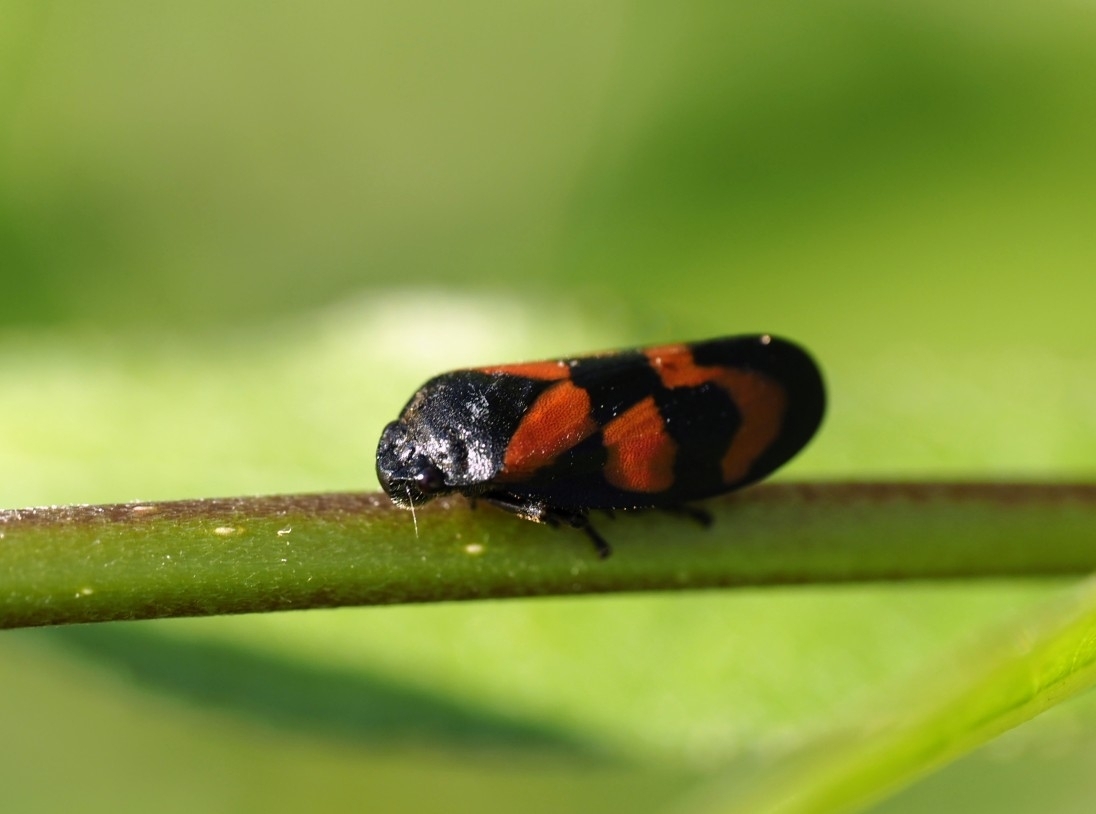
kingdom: Animalia
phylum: Arthropoda
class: Insecta
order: Hemiptera
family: Cercopidae
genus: Cercopis
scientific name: Cercopis vulnerata
